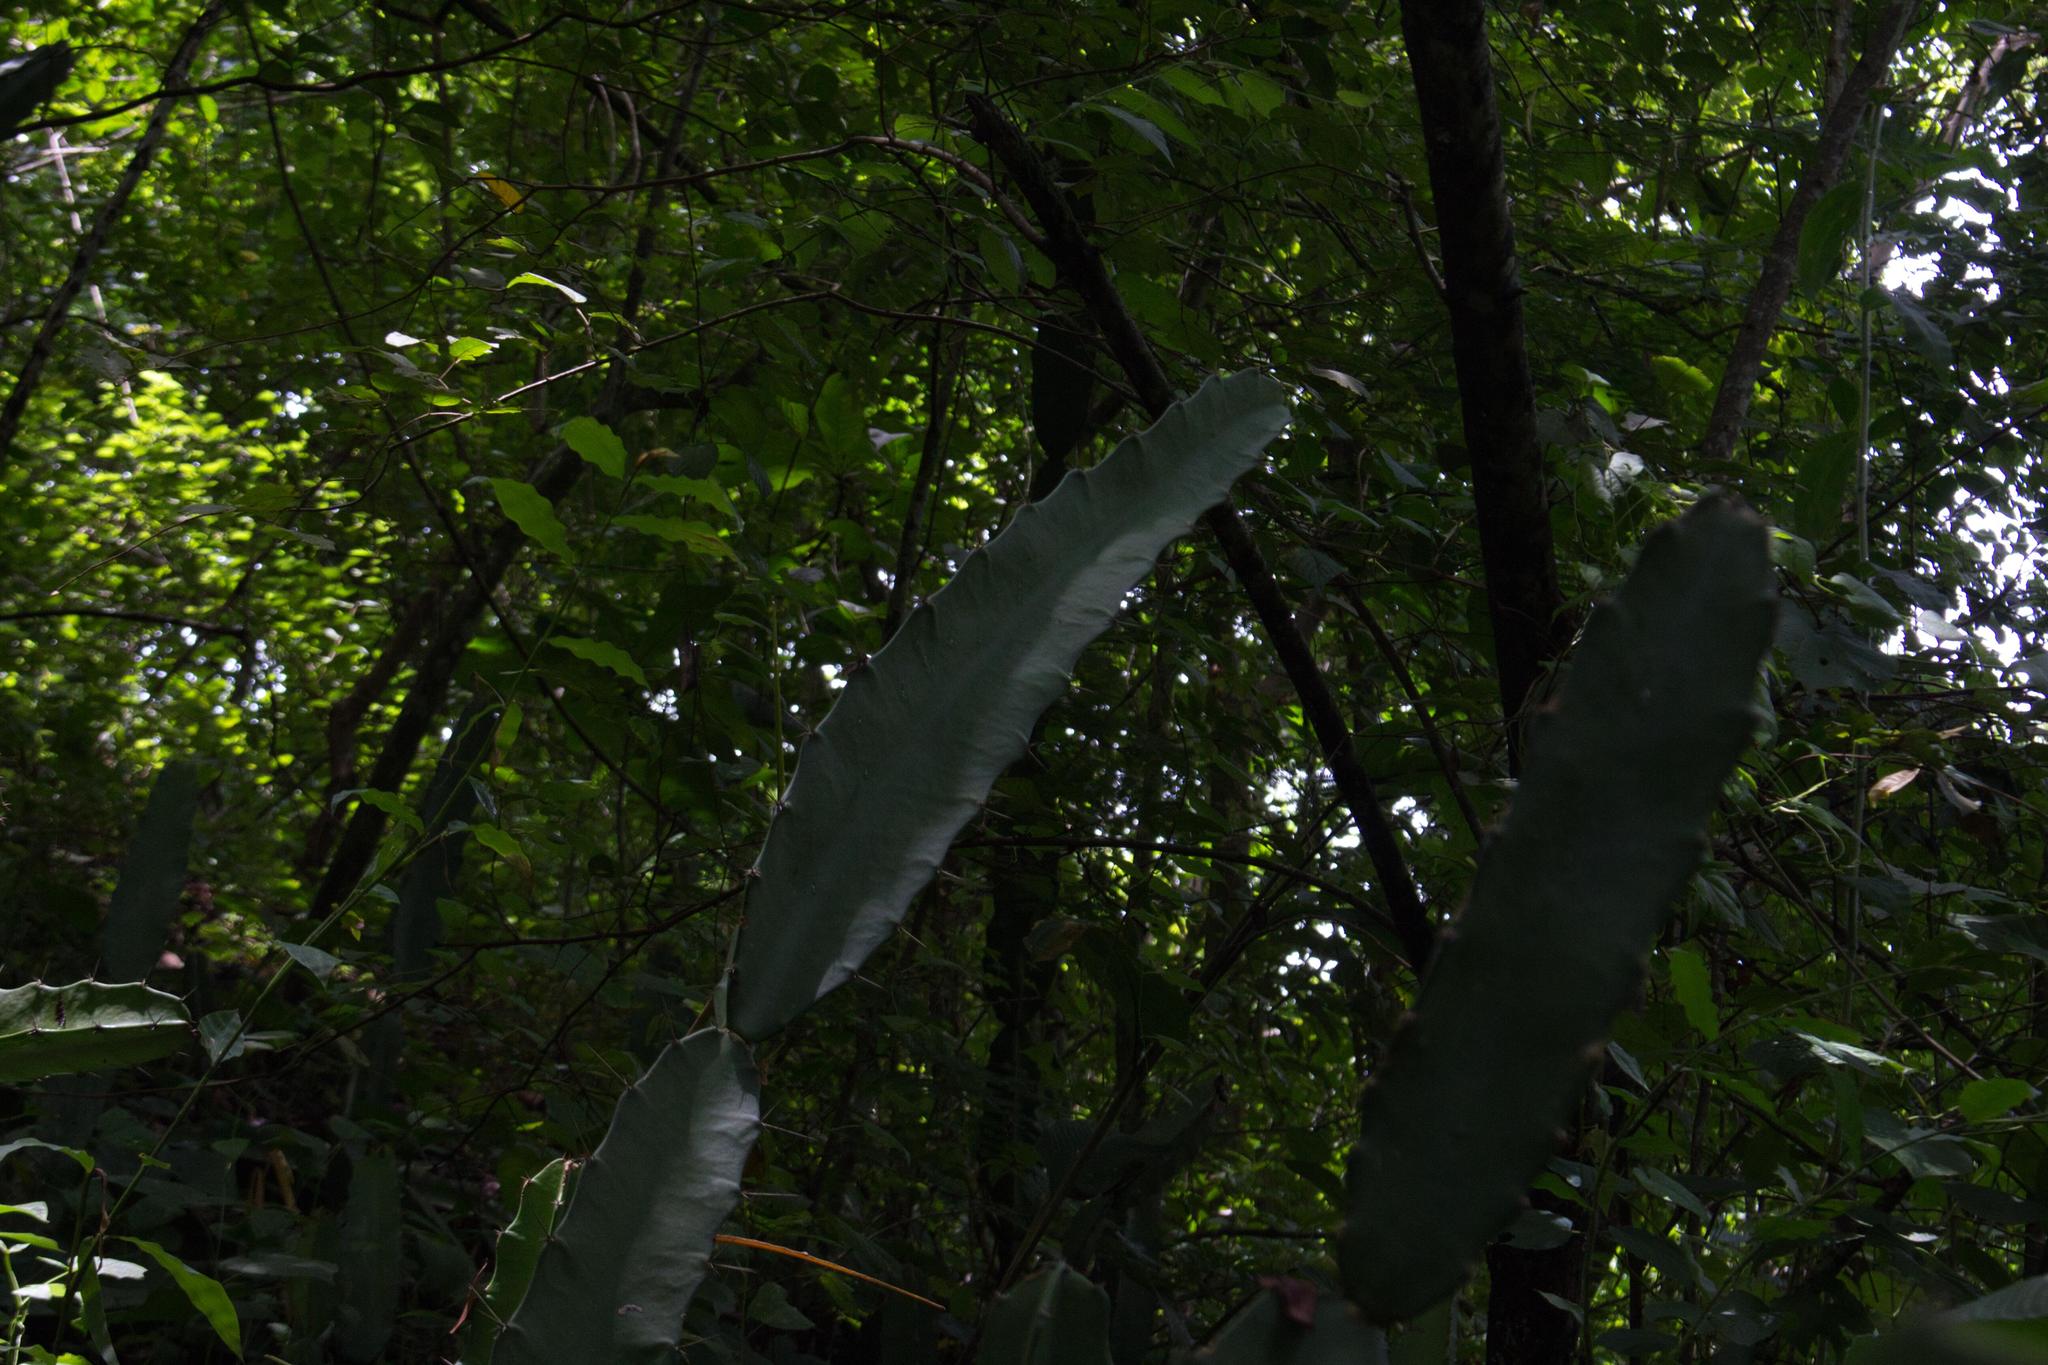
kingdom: Plantae
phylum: Tracheophyta
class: Magnoliopsida
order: Caryophyllales
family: Cactaceae
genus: Acanthocereus
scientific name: Acanthocereus tetragonus
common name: Triangle cactus
